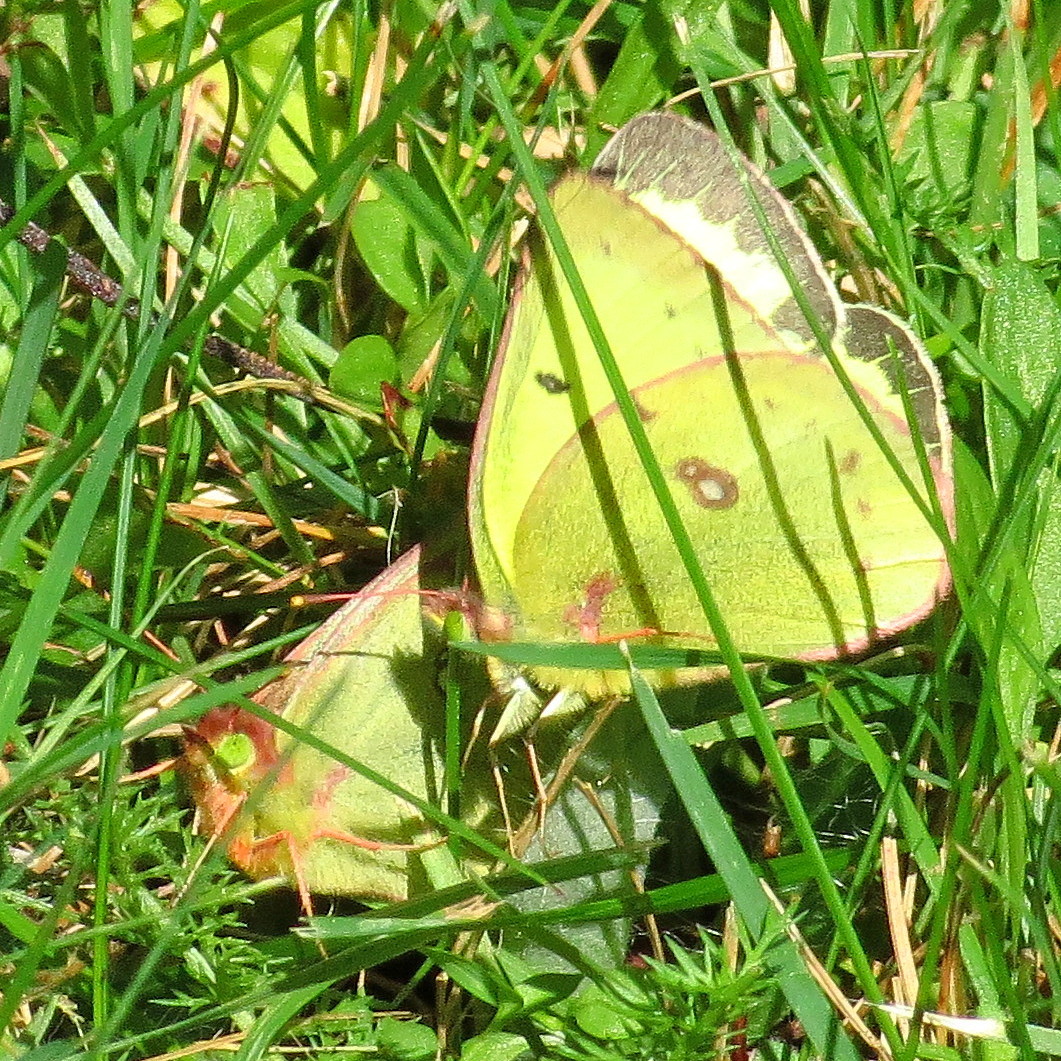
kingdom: Animalia
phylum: Arthropoda
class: Insecta
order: Lepidoptera
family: Pieridae
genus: Colias
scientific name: Colias philodice
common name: Clouded sulphur
